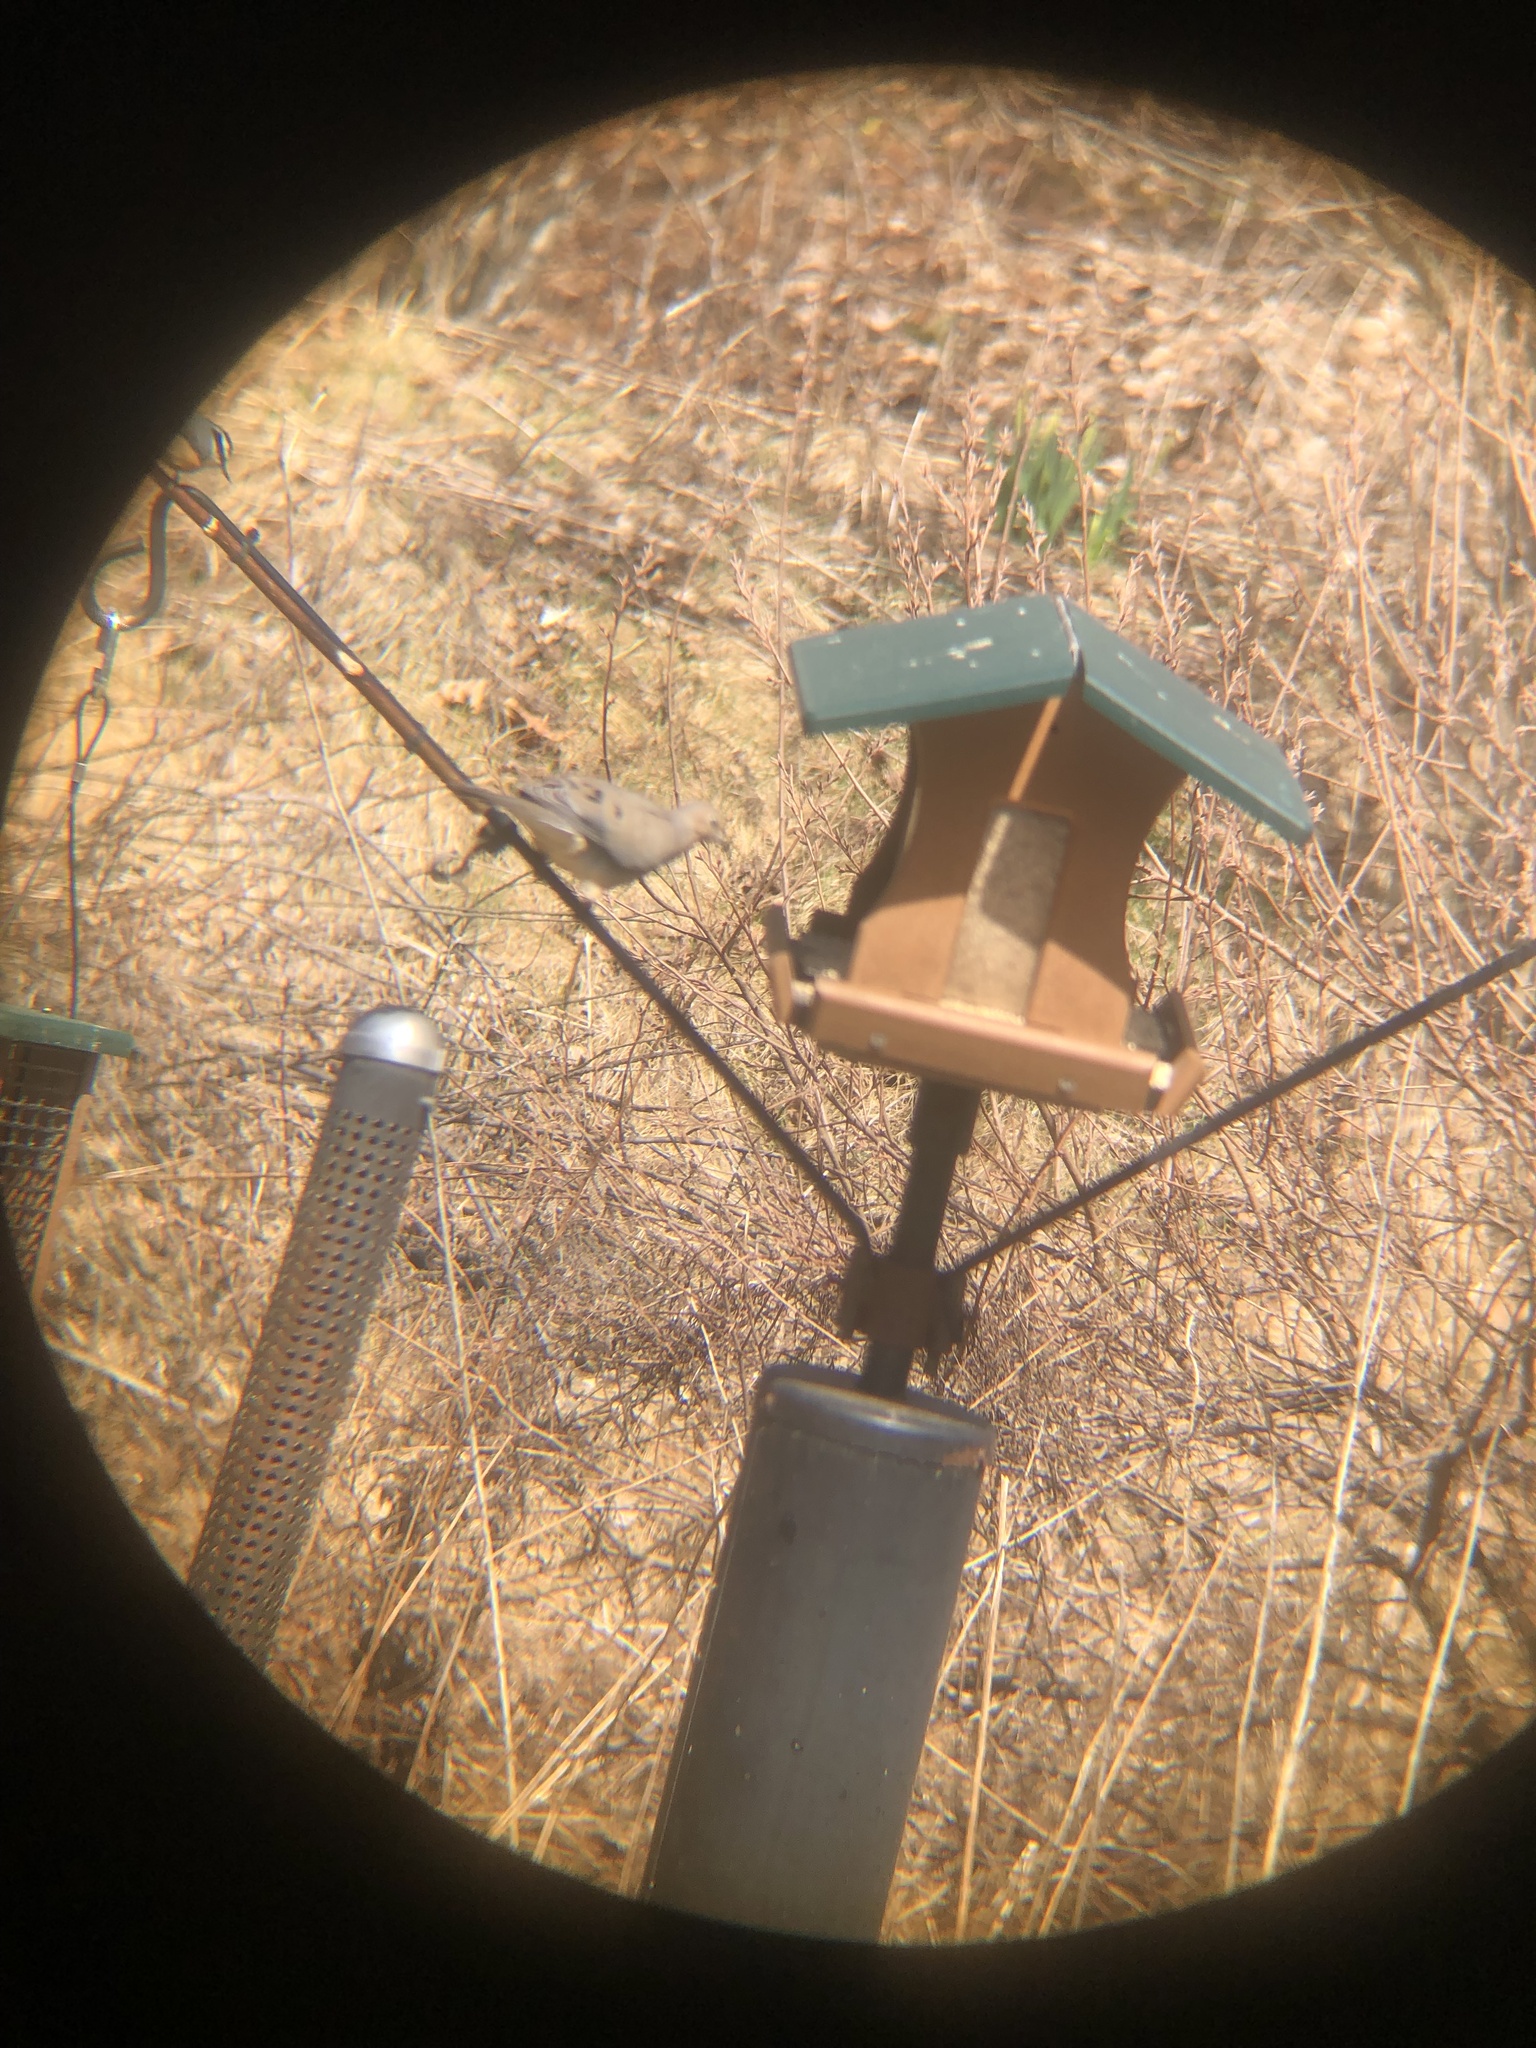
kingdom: Animalia
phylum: Chordata
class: Aves
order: Columbiformes
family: Columbidae
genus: Zenaida
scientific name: Zenaida macroura
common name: Mourning dove
